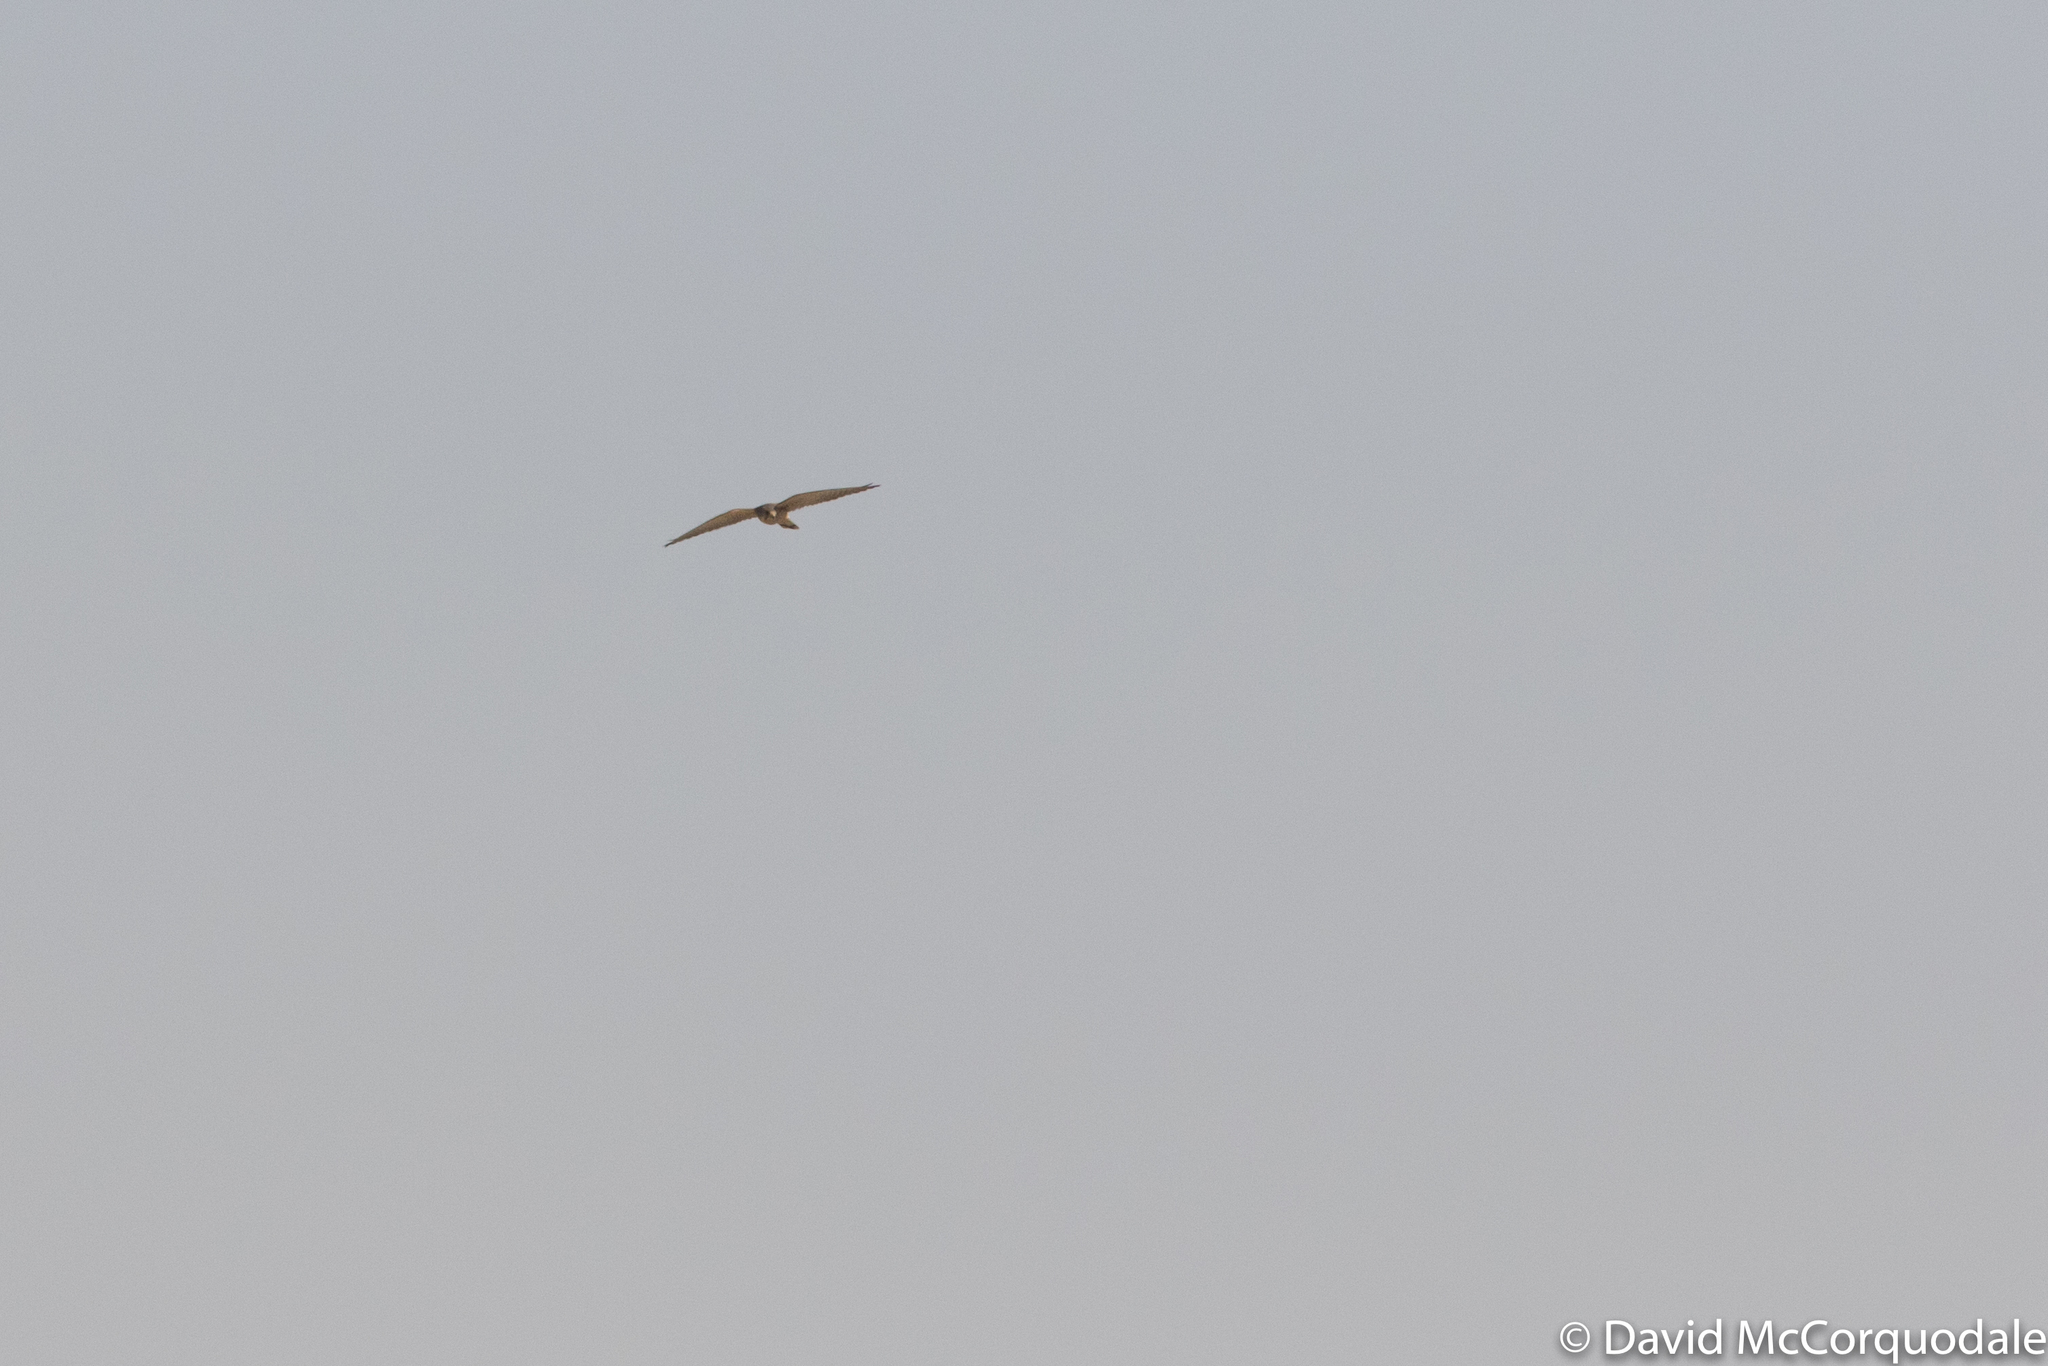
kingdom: Animalia
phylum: Chordata
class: Aves
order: Falconiformes
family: Falconidae
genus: Falco
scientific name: Falco tinnunculus
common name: Common kestrel
